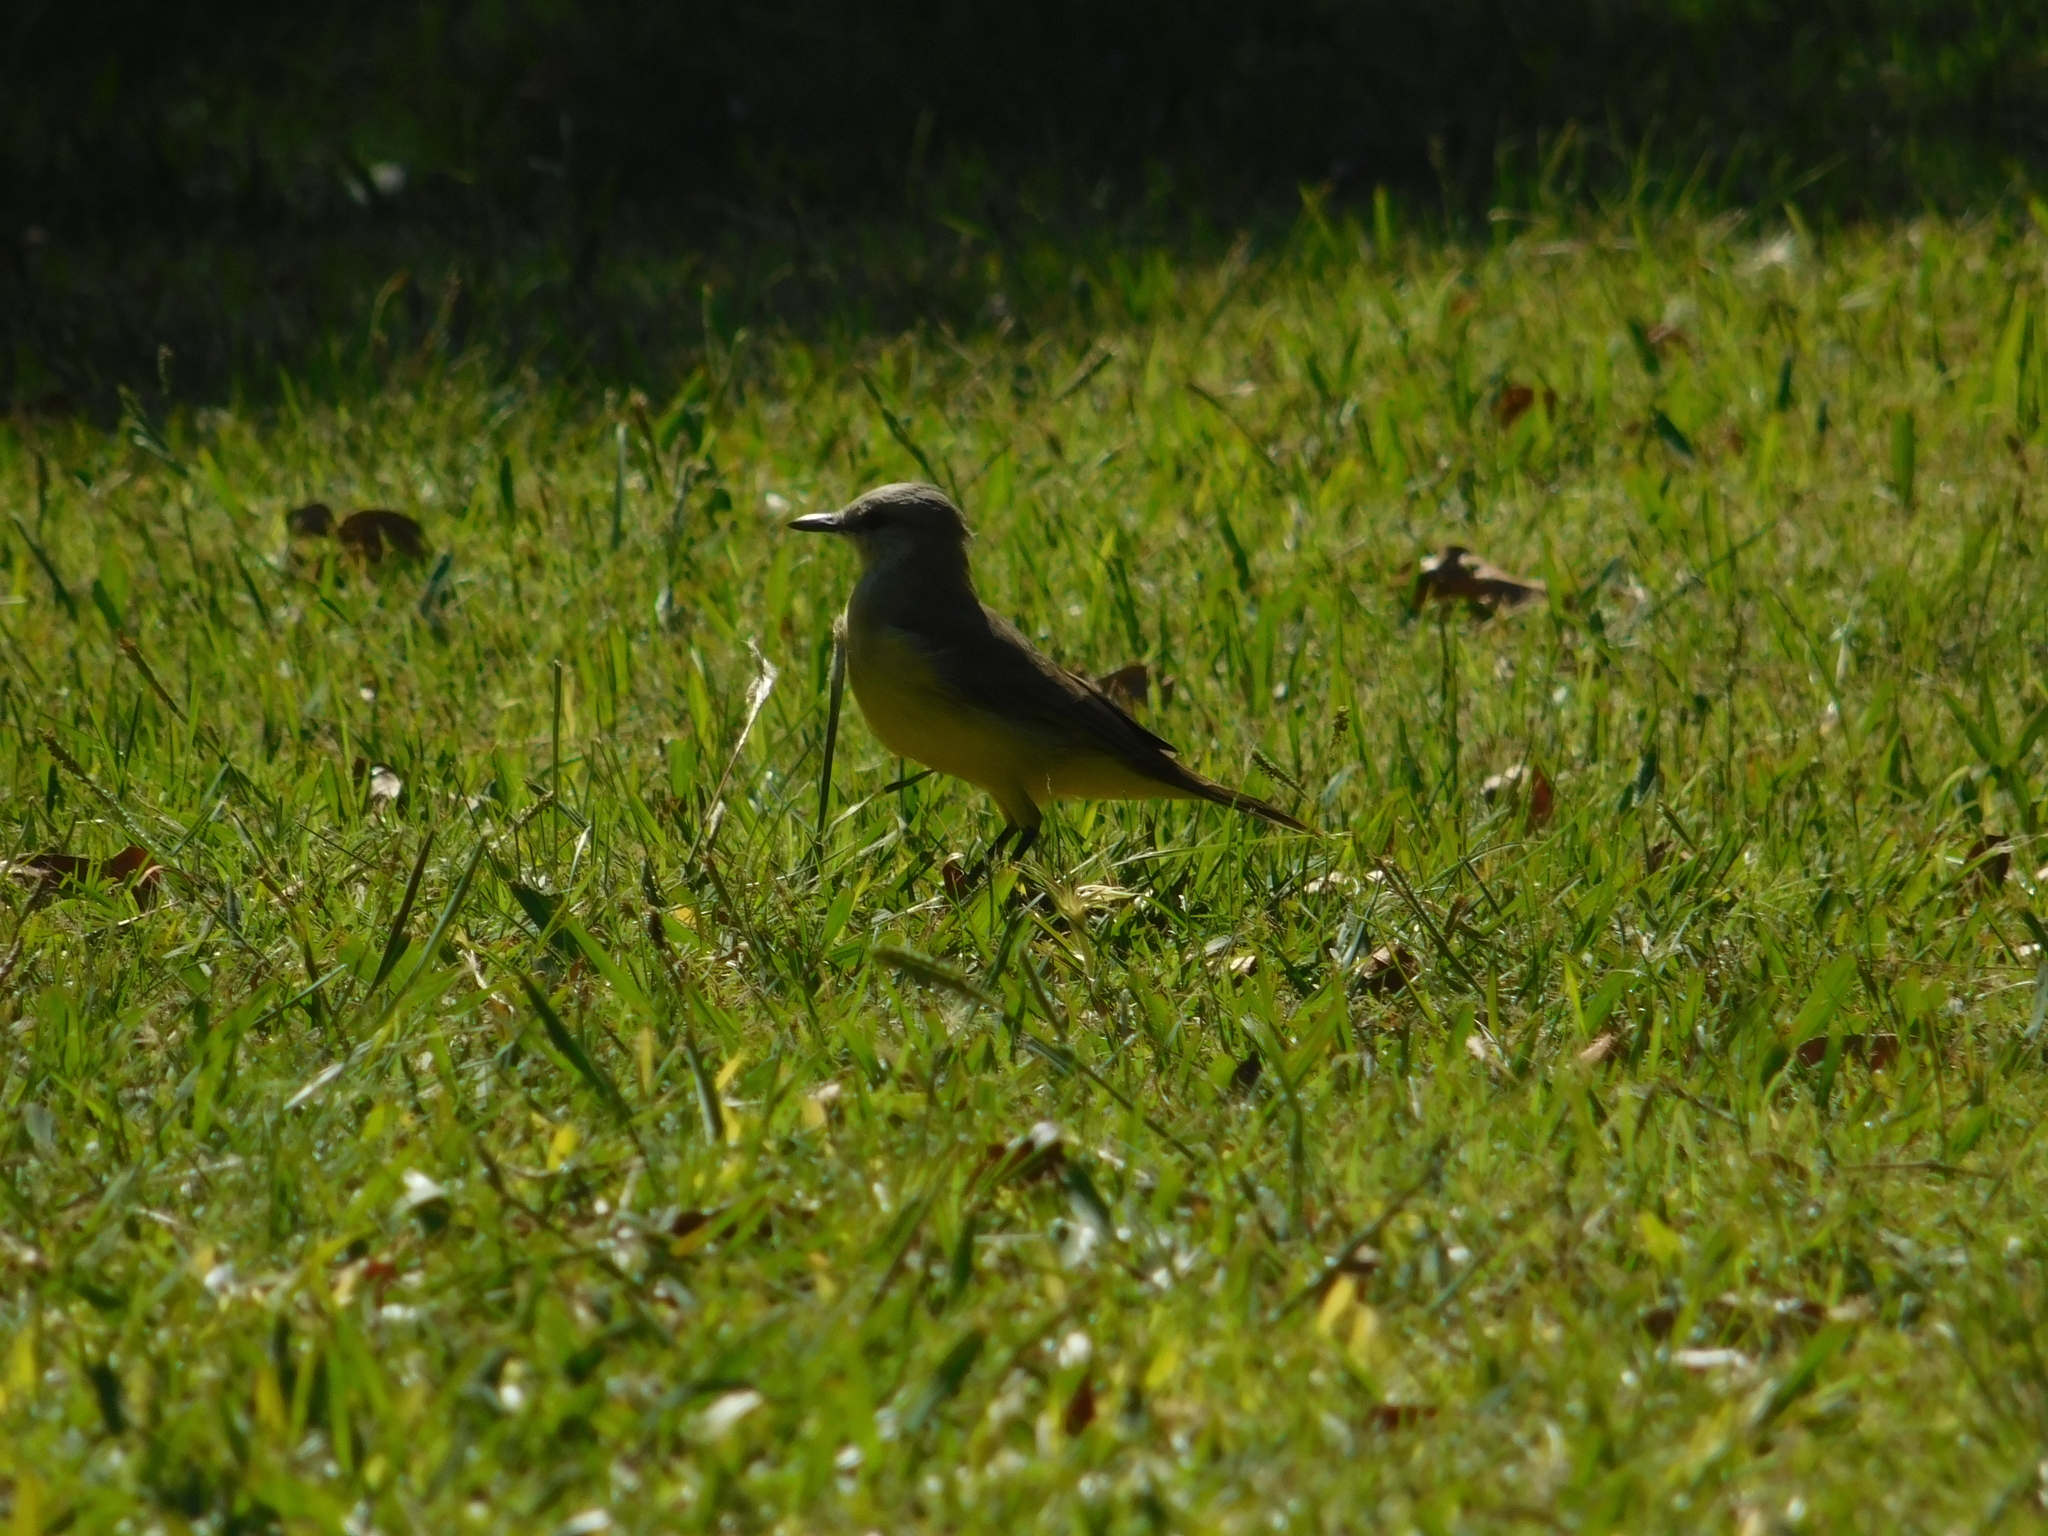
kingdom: Animalia
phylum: Chordata
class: Aves
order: Passeriformes
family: Tyrannidae
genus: Machetornis
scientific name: Machetornis rixosa
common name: Cattle tyrant
